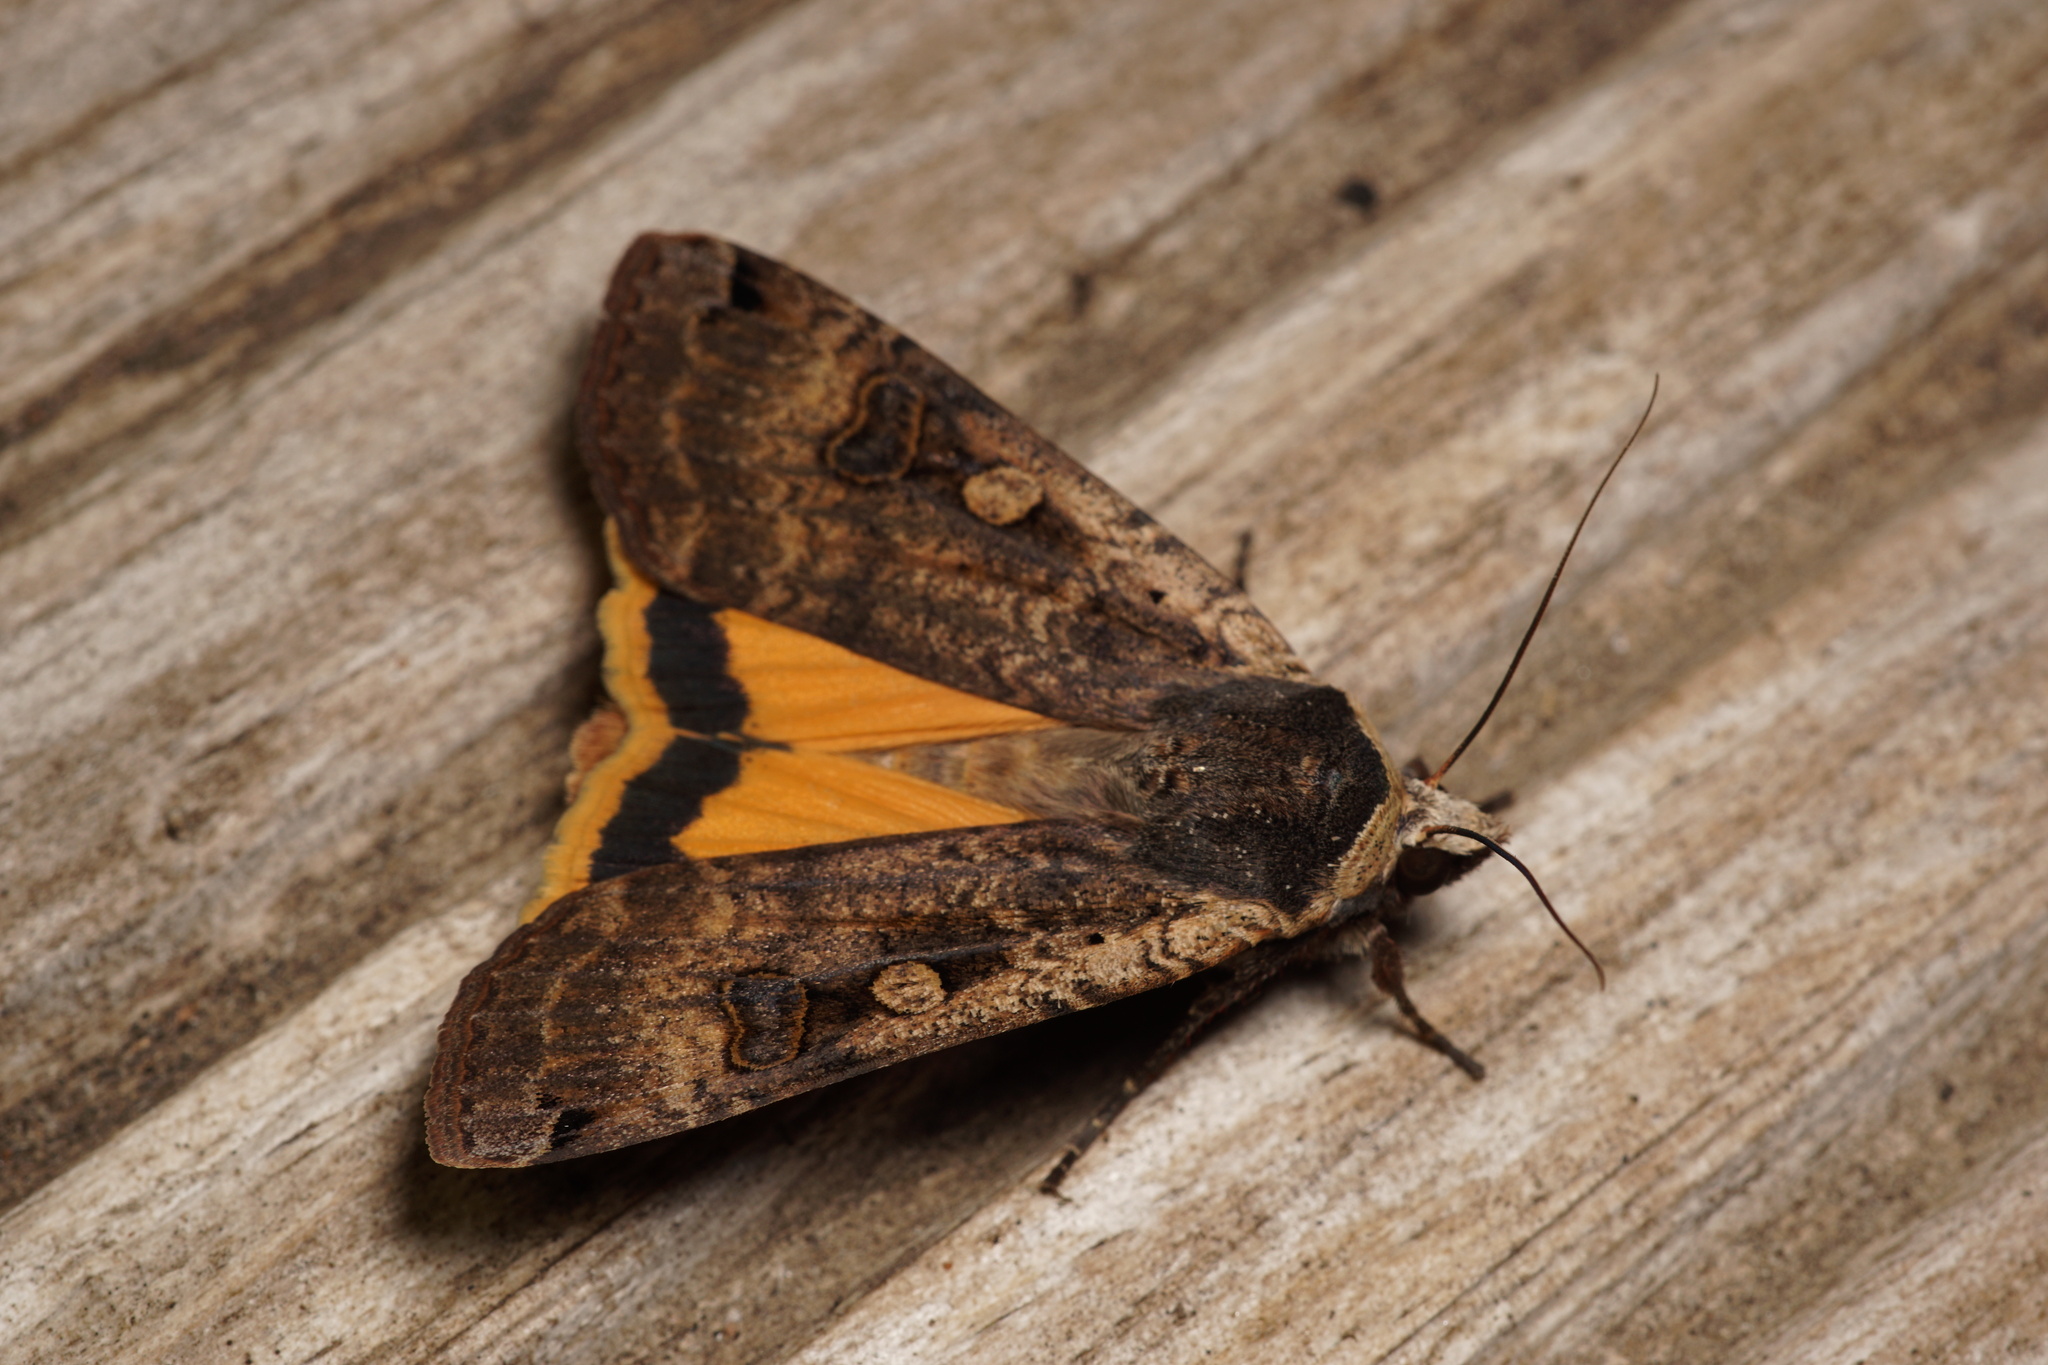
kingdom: Animalia
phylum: Arthropoda
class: Insecta
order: Lepidoptera
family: Noctuidae
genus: Noctua
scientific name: Noctua pronuba
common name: Large yellow underwing
